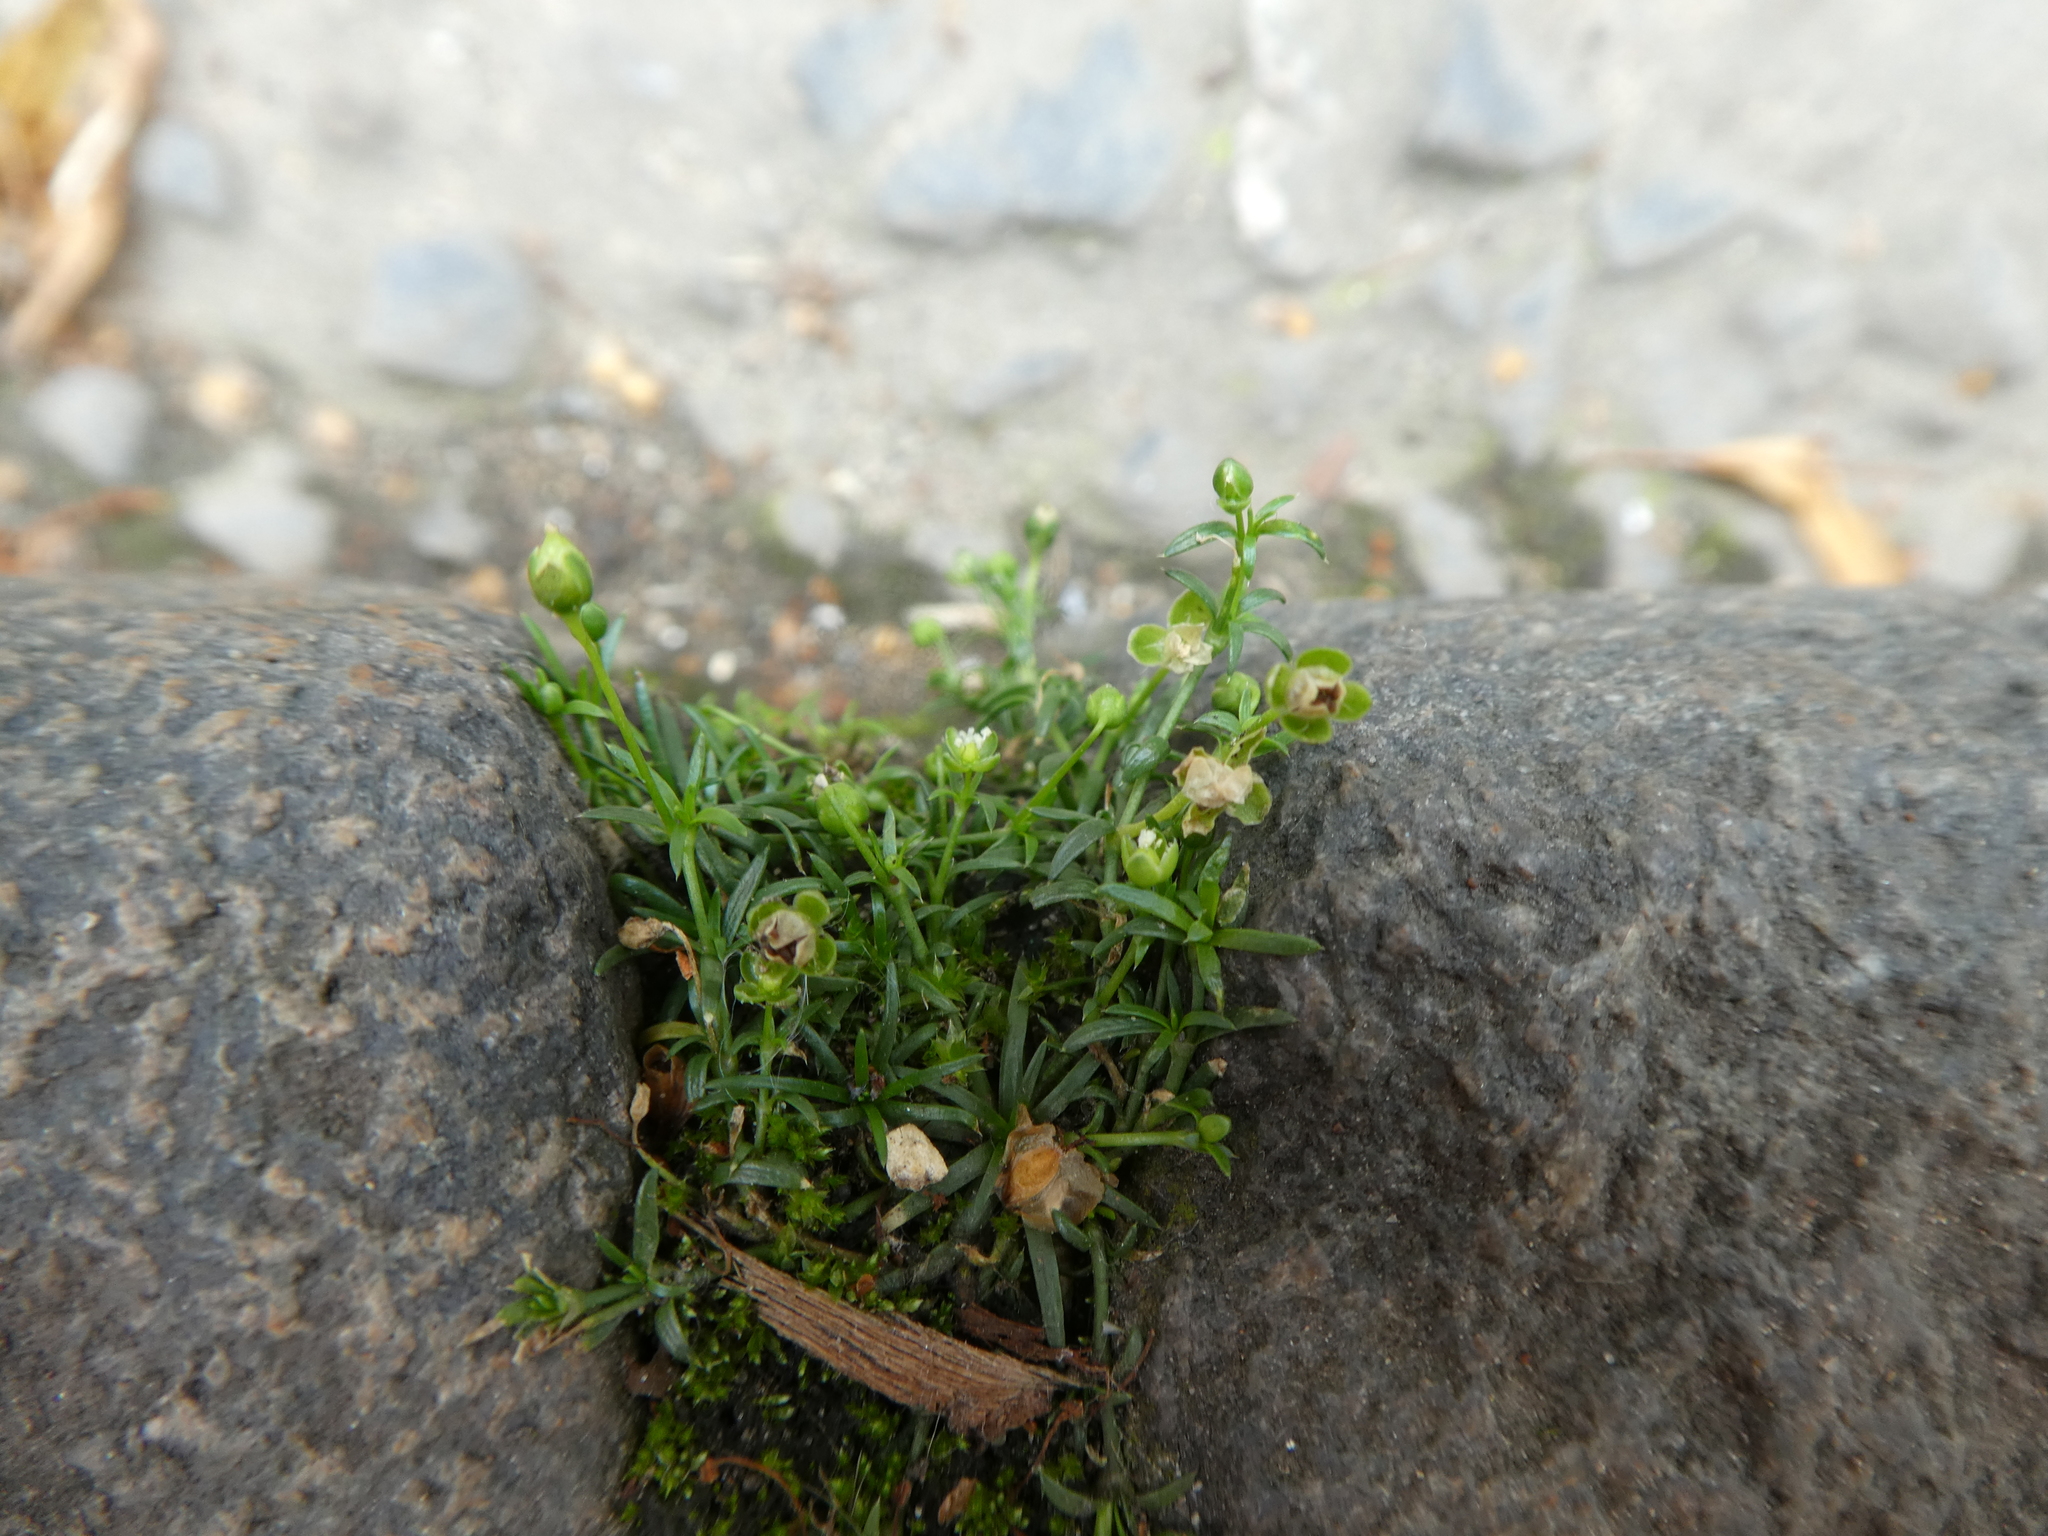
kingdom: Plantae
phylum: Tracheophyta
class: Magnoliopsida
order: Caryophyllales
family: Caryophyllaceae
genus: Sagina
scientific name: Sagina procumbens
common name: Procumbent pearlwort
